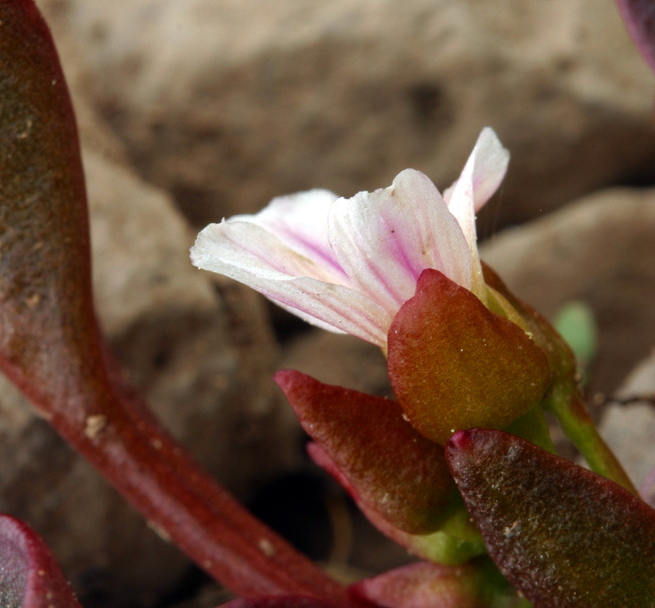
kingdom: Plantae
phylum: Tracheophyta
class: Magnoliopsida
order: Caryophyllales
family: Montiaceae
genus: Claytonia
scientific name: Claytonia nevadensis
